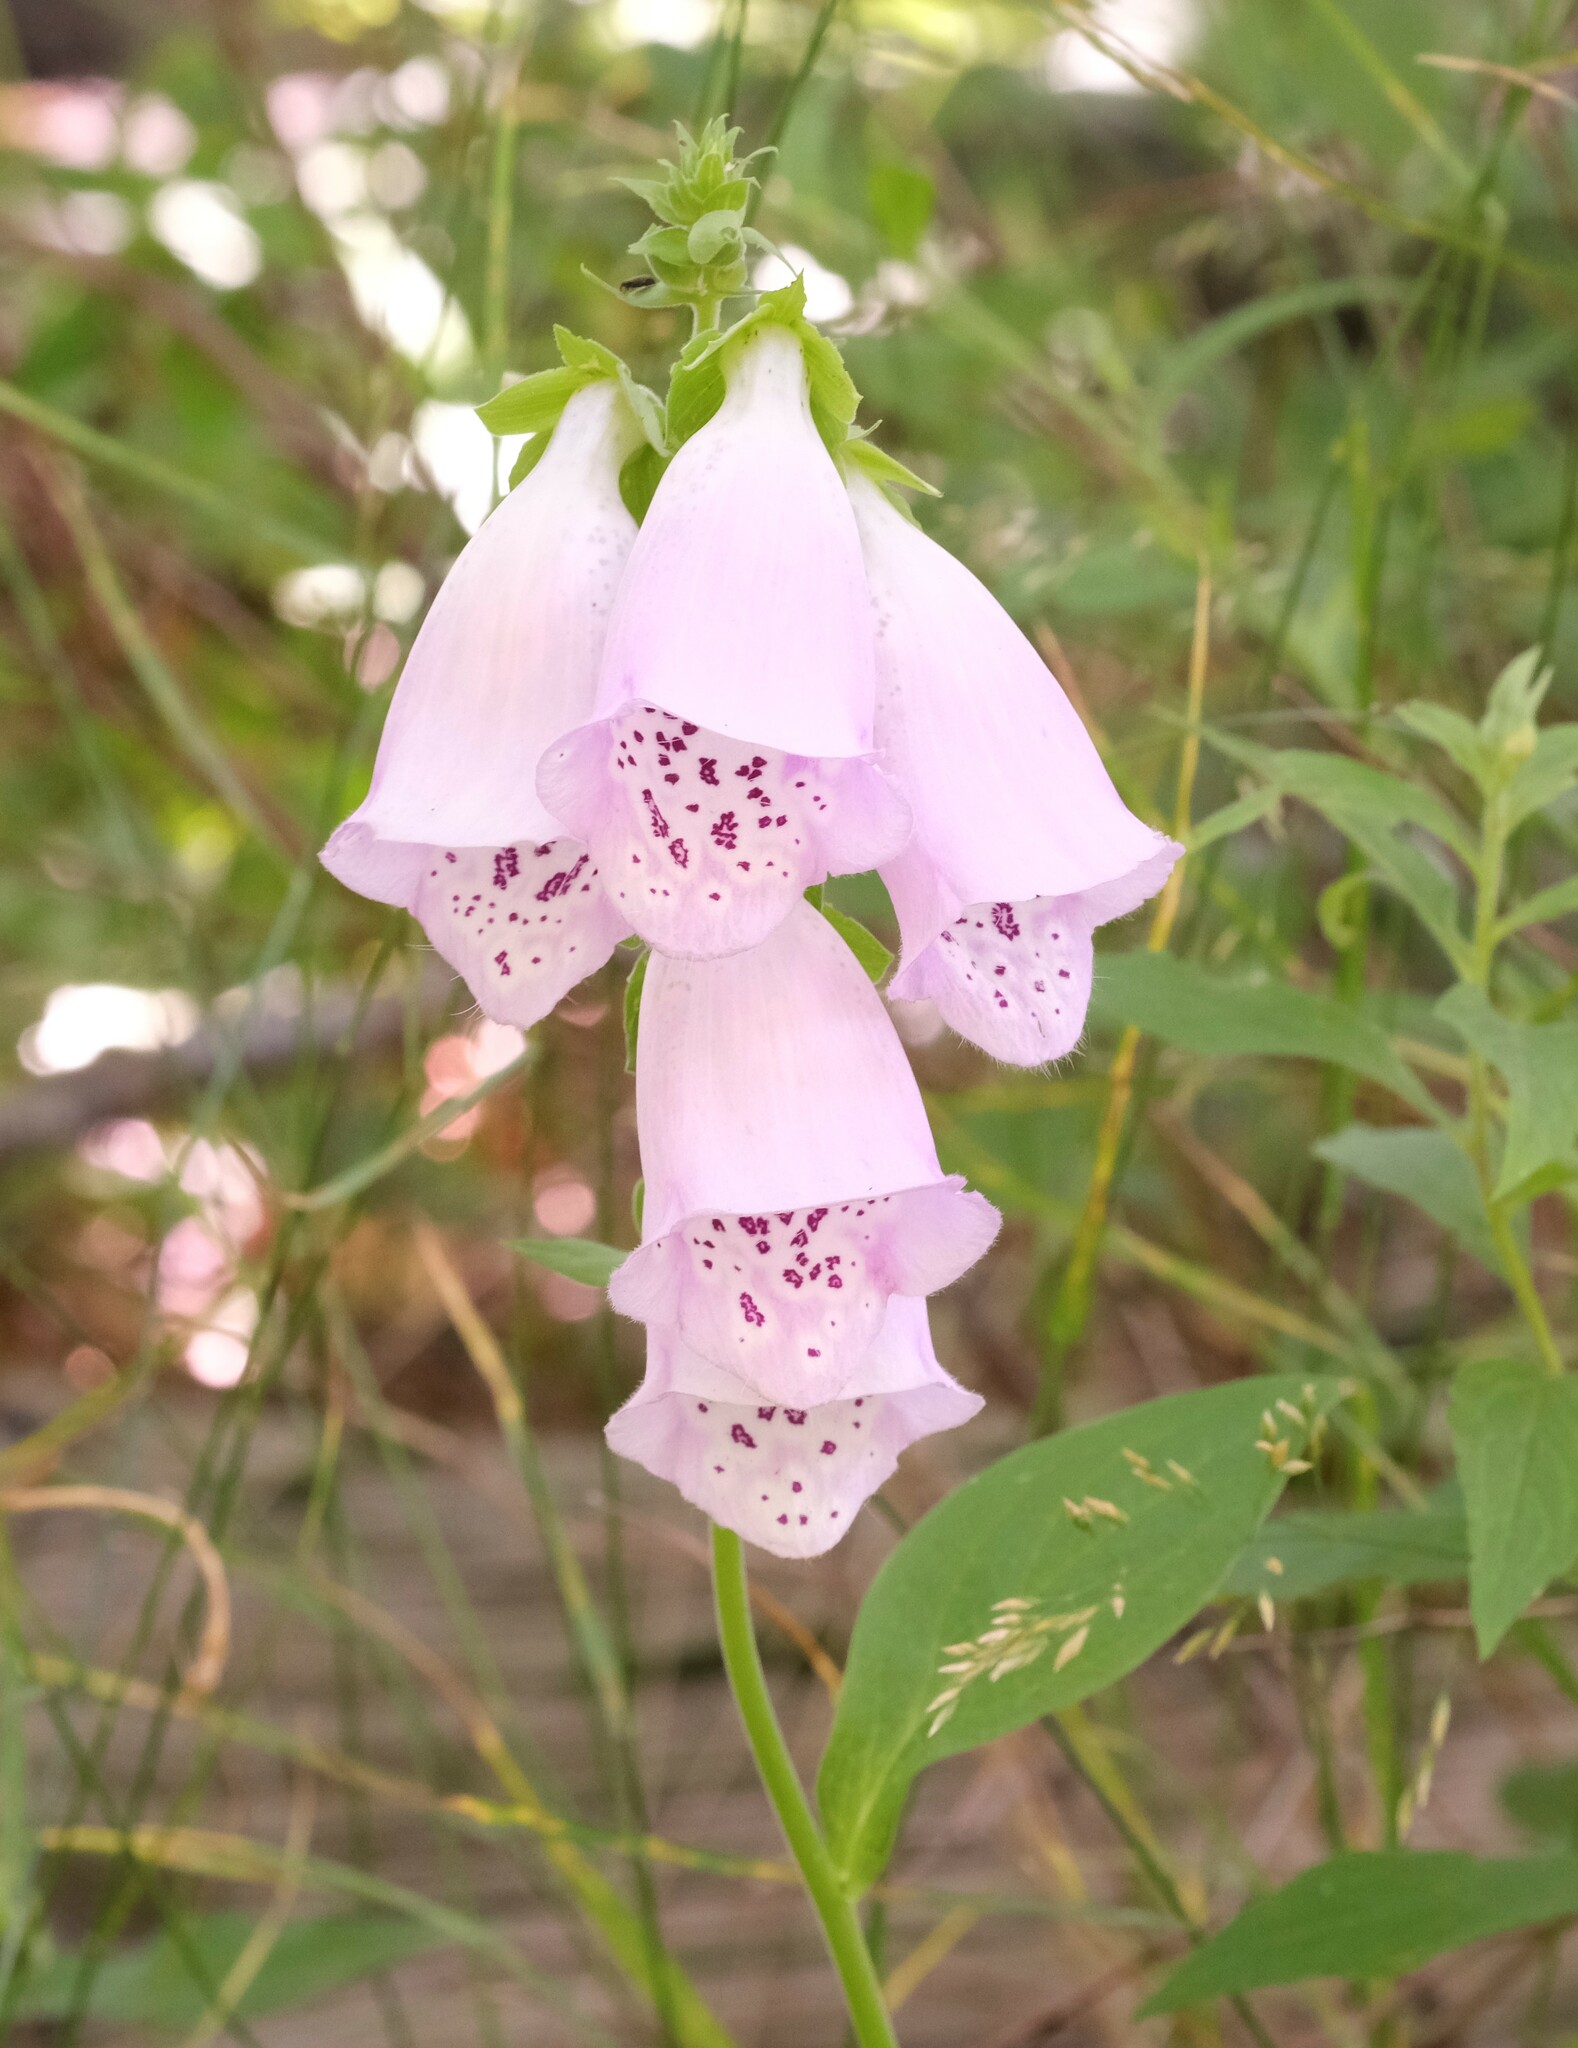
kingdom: Plantae
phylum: Tracheophyta
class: Magnoliopsida
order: Lamiales
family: Plantaginaceae
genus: Digitalis
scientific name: Digitalis purpurea
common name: Foxglove
